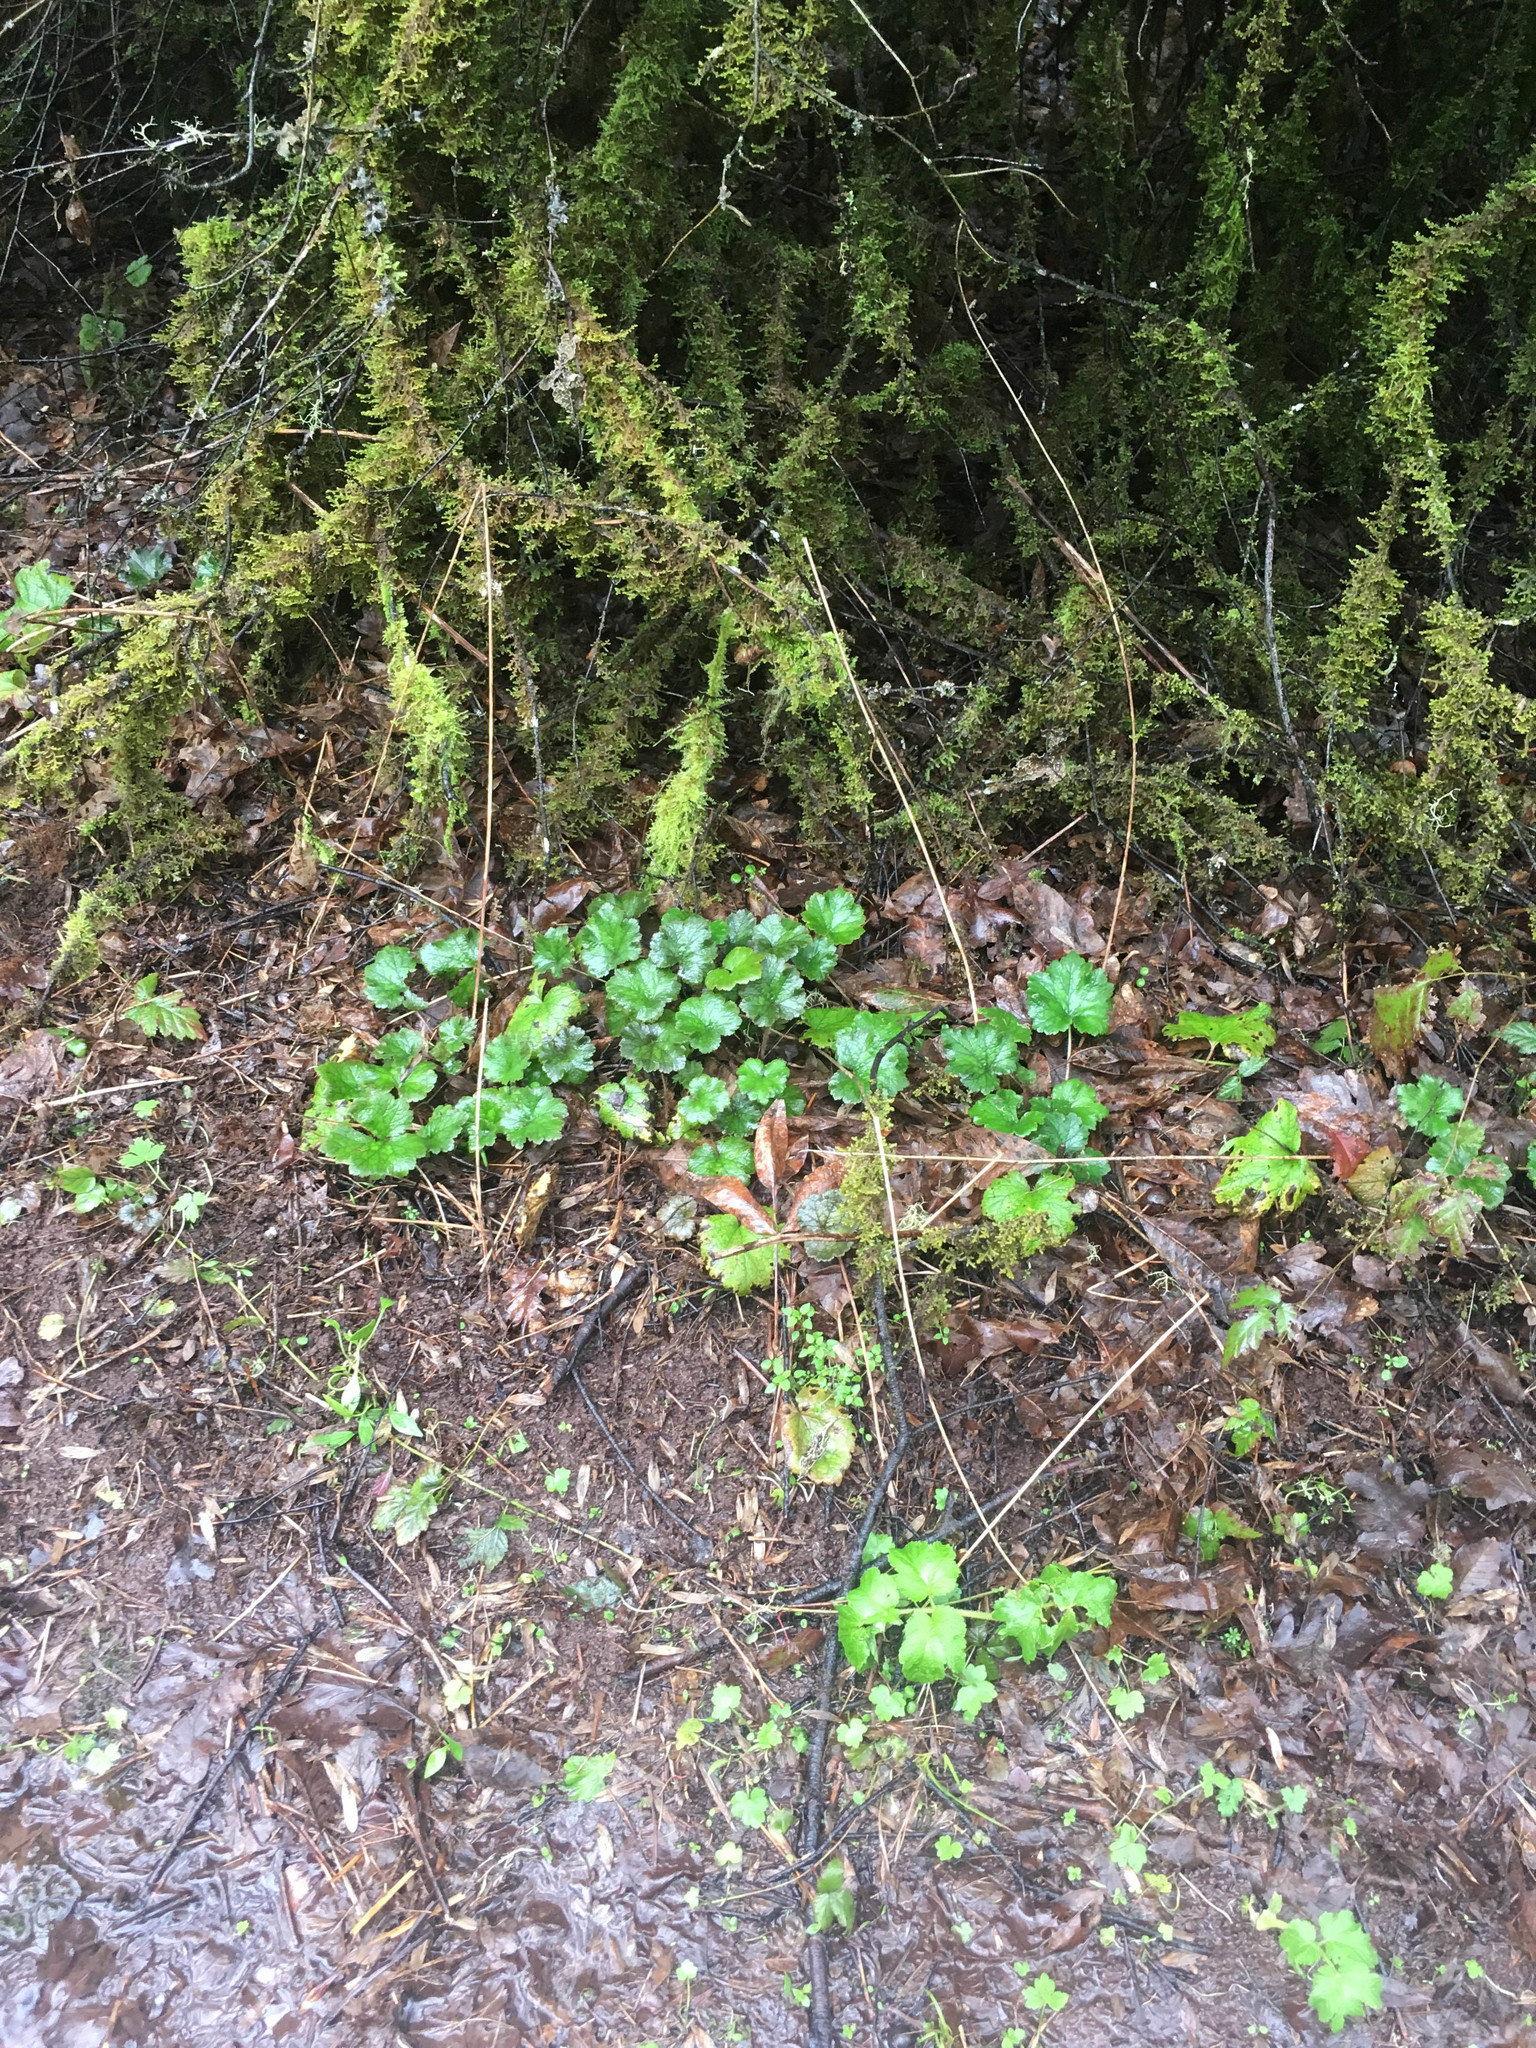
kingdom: Plantae
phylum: Tracheophyta
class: Magnoliopsida
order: Saxifragales
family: Saxifragaceae
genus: Tellima
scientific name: Tellima grandiflora
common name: Fringecups
